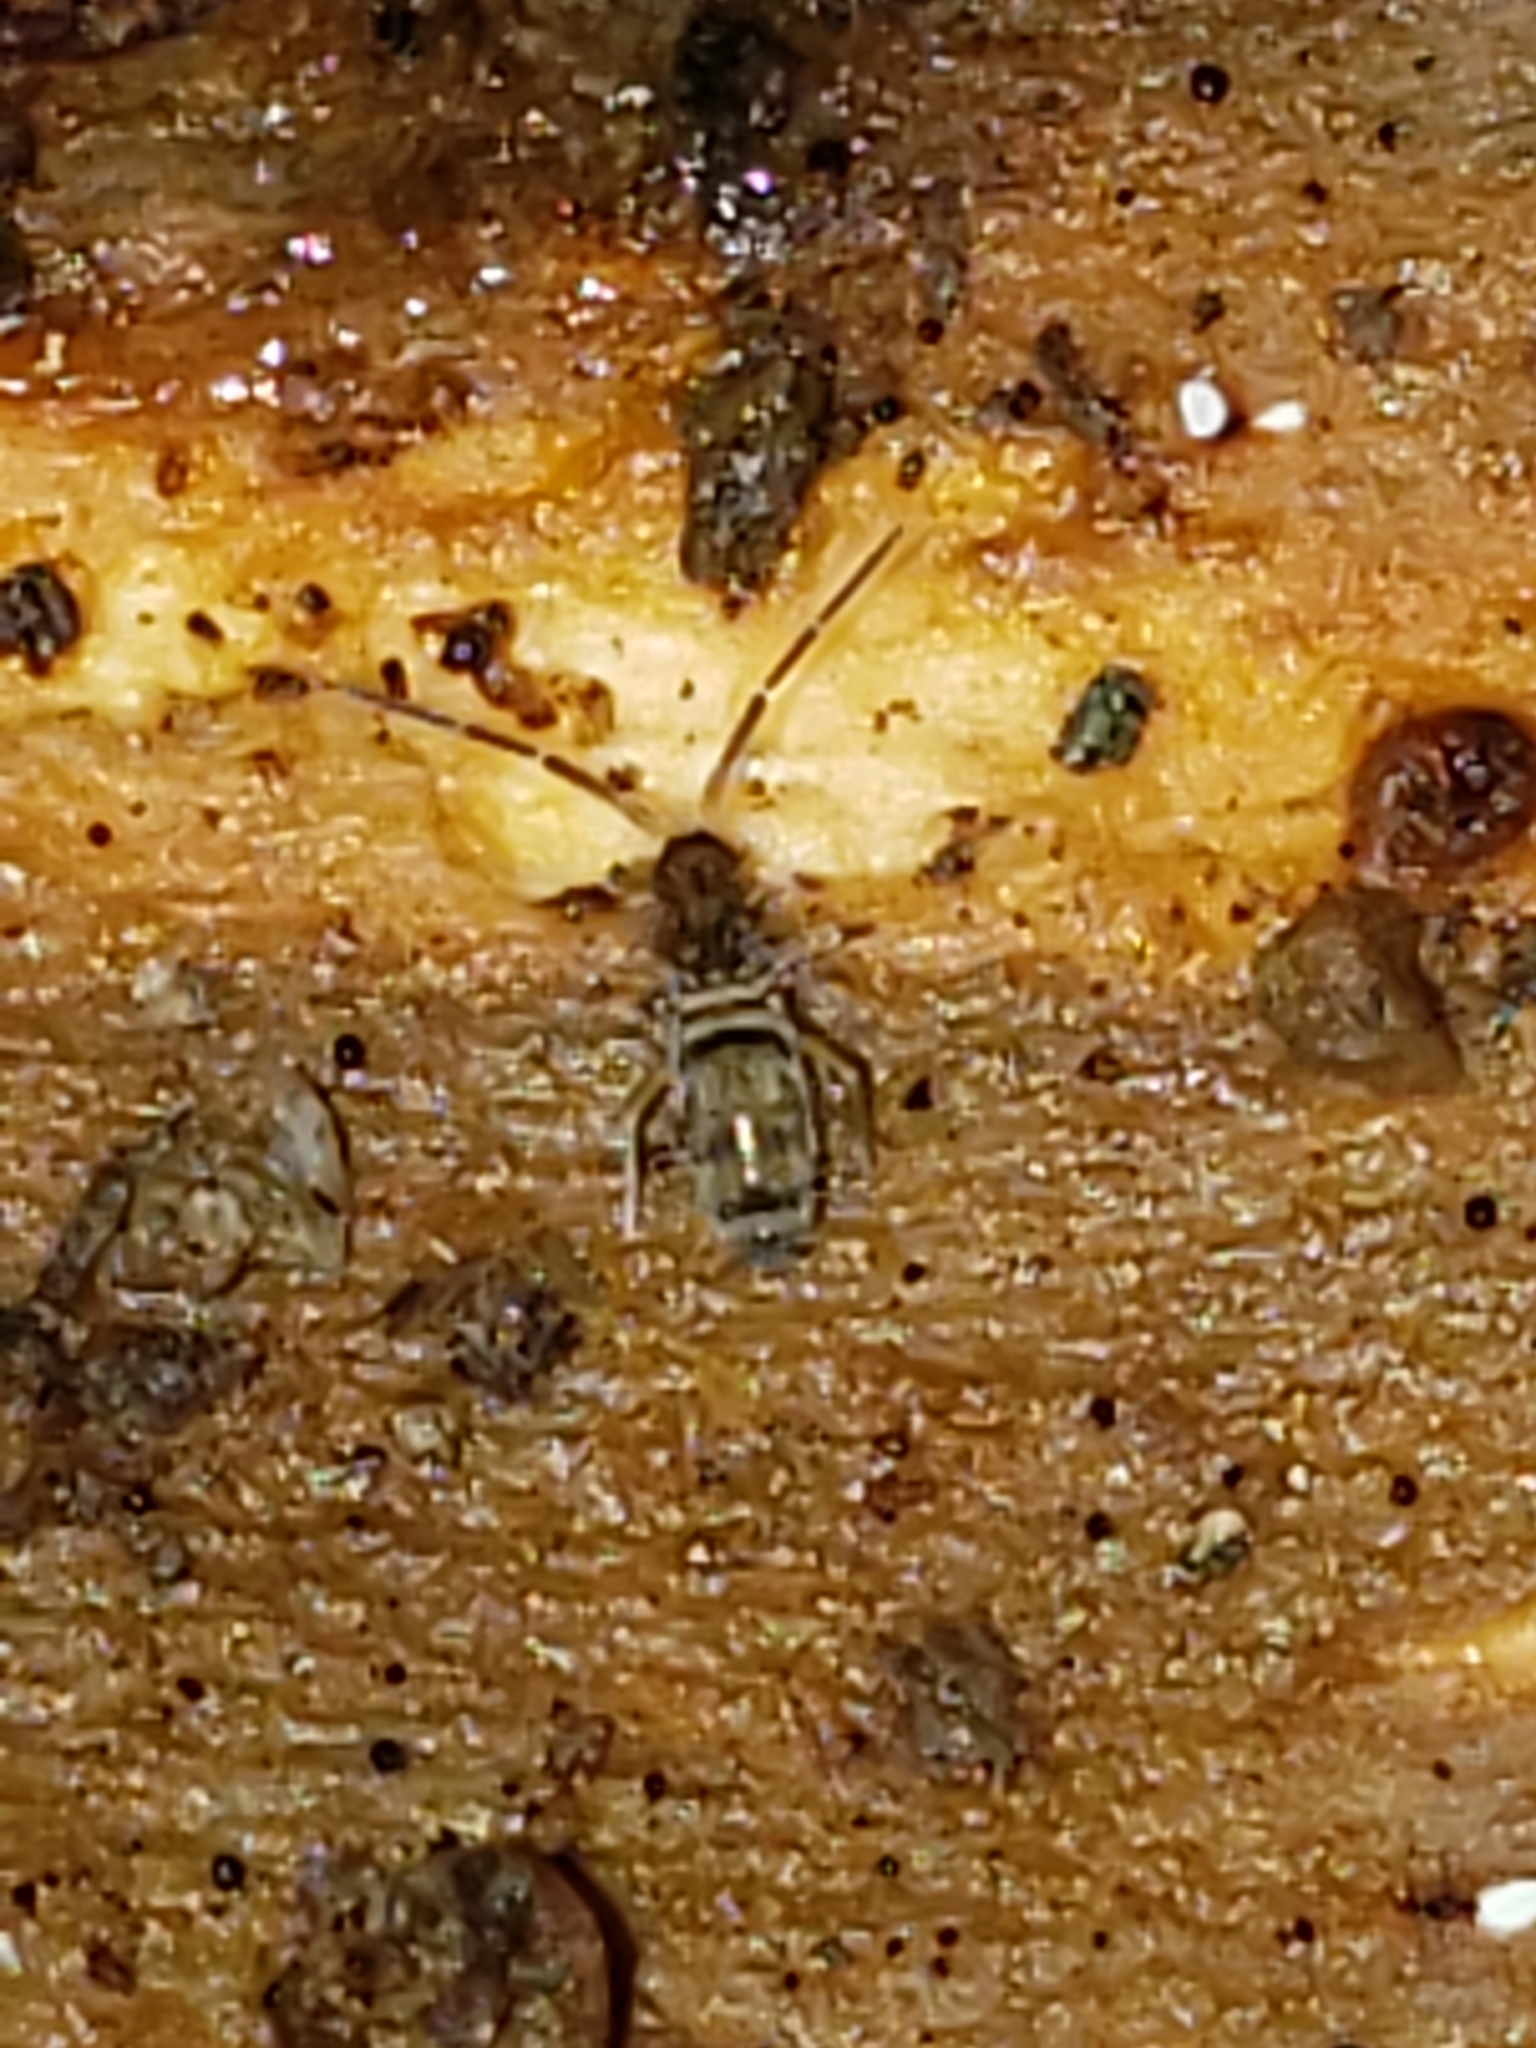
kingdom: Animalia
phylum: Arthropoda
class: Collembola
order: Entomobryomorpha
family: Entomobryidae
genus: Homidia
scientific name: Homidia sauteri
